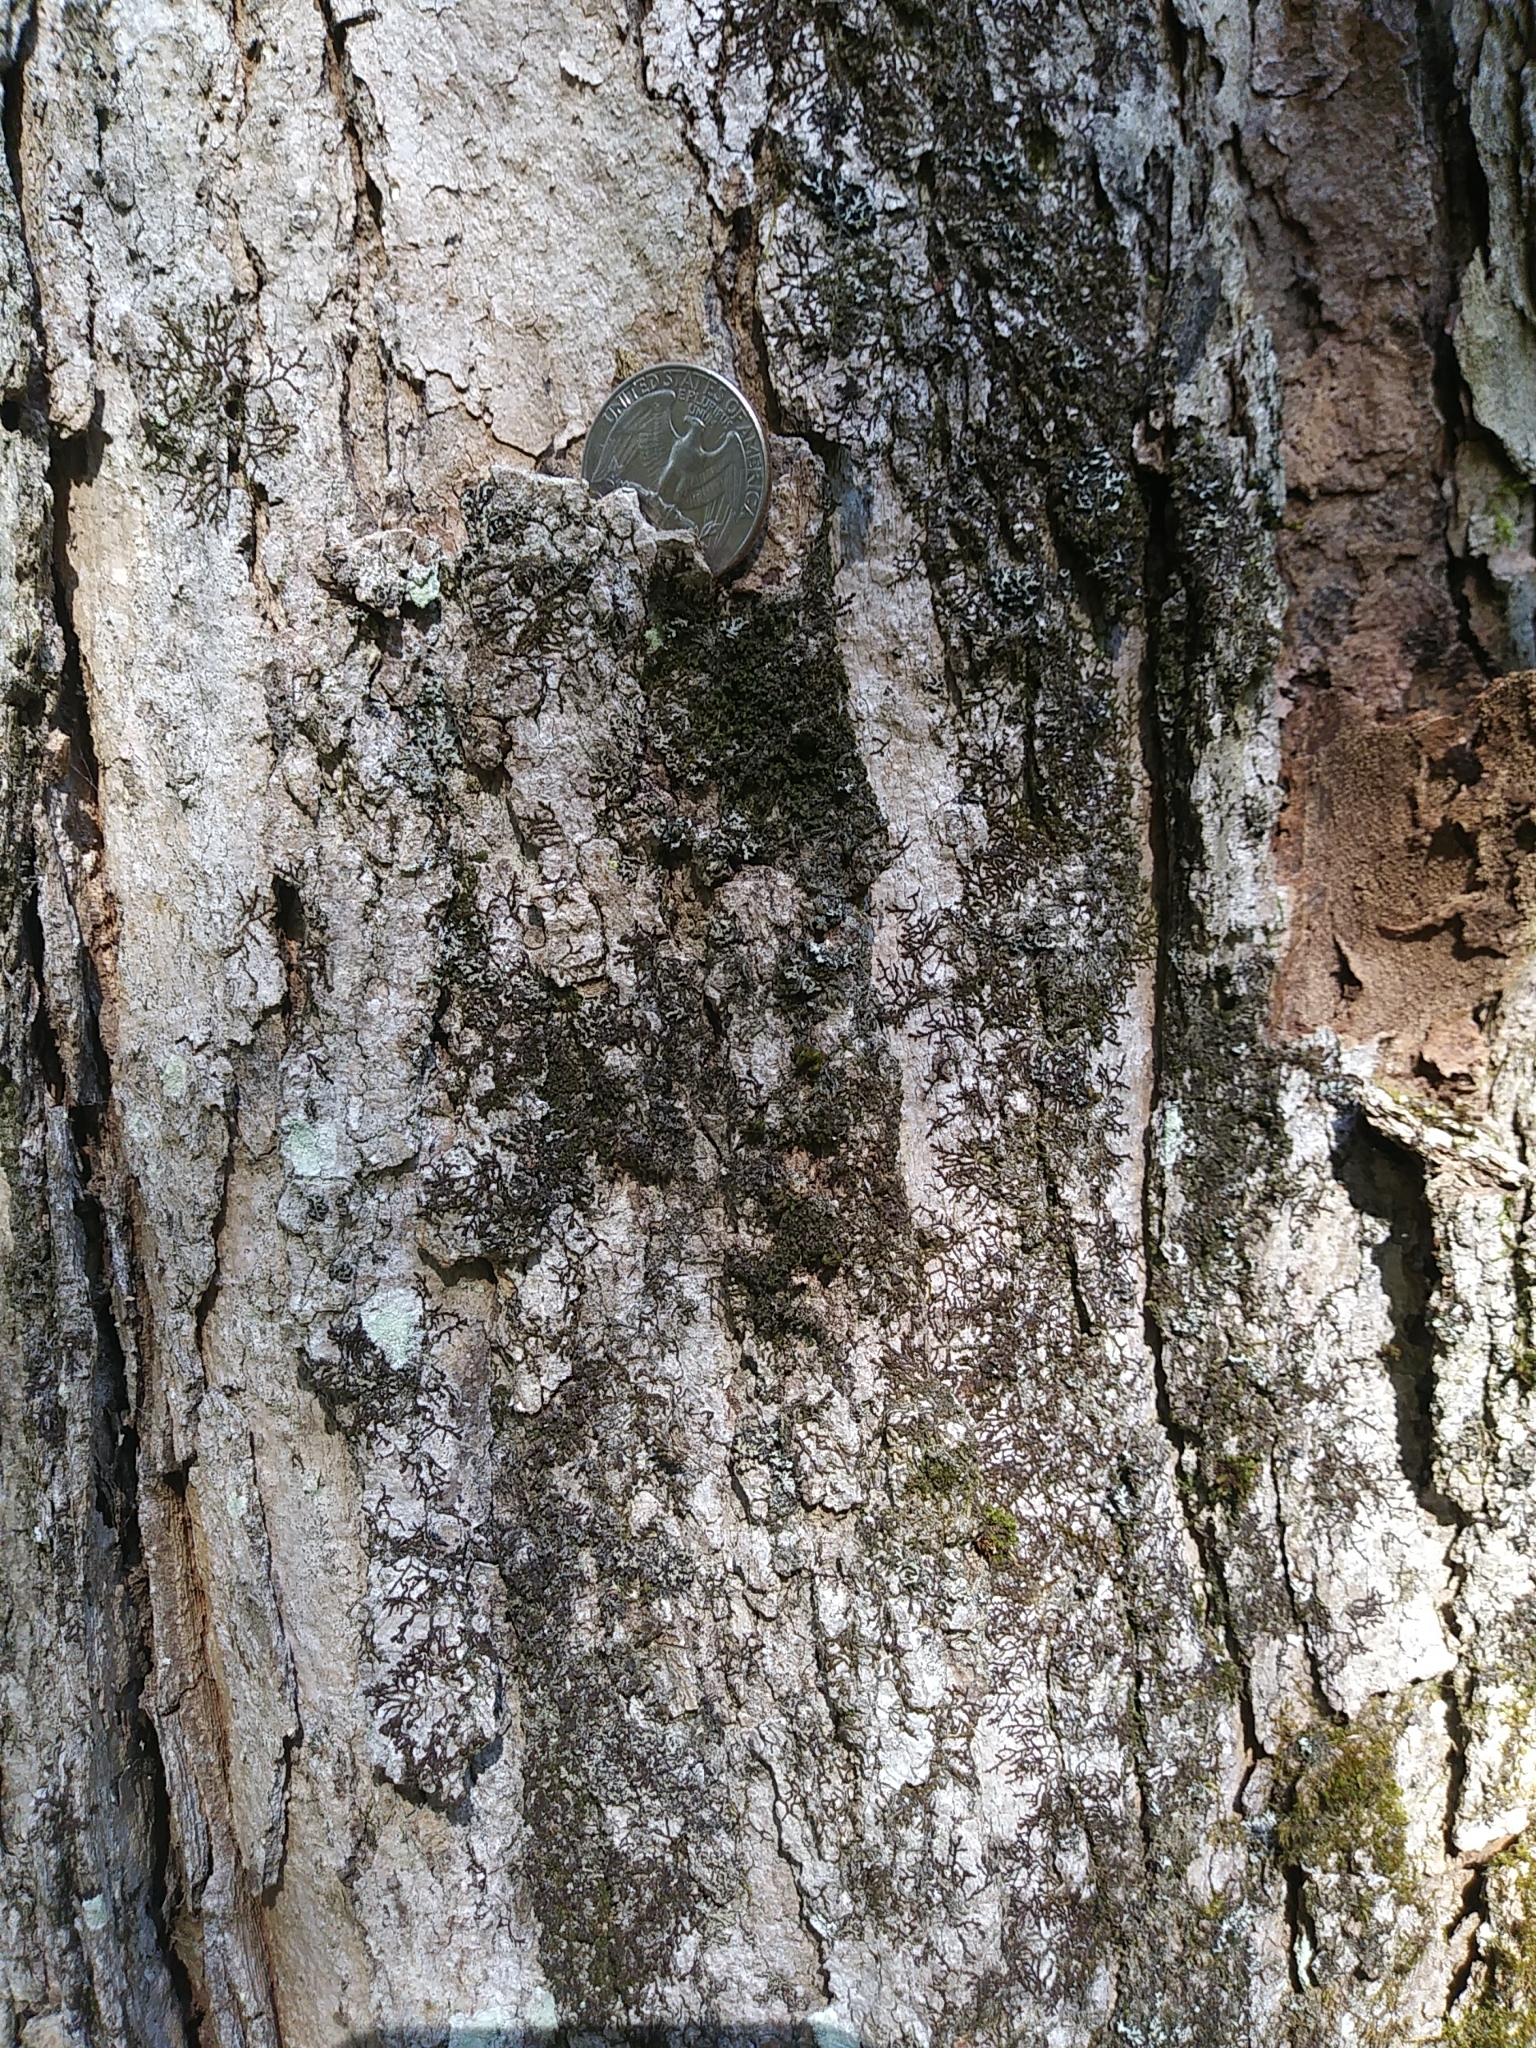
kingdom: Plantae
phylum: Tracheophyta
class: Magnoliopsida
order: Sapindales
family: Sapindaceae
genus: Acer
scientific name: Acer saccharum
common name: Sugar maple
